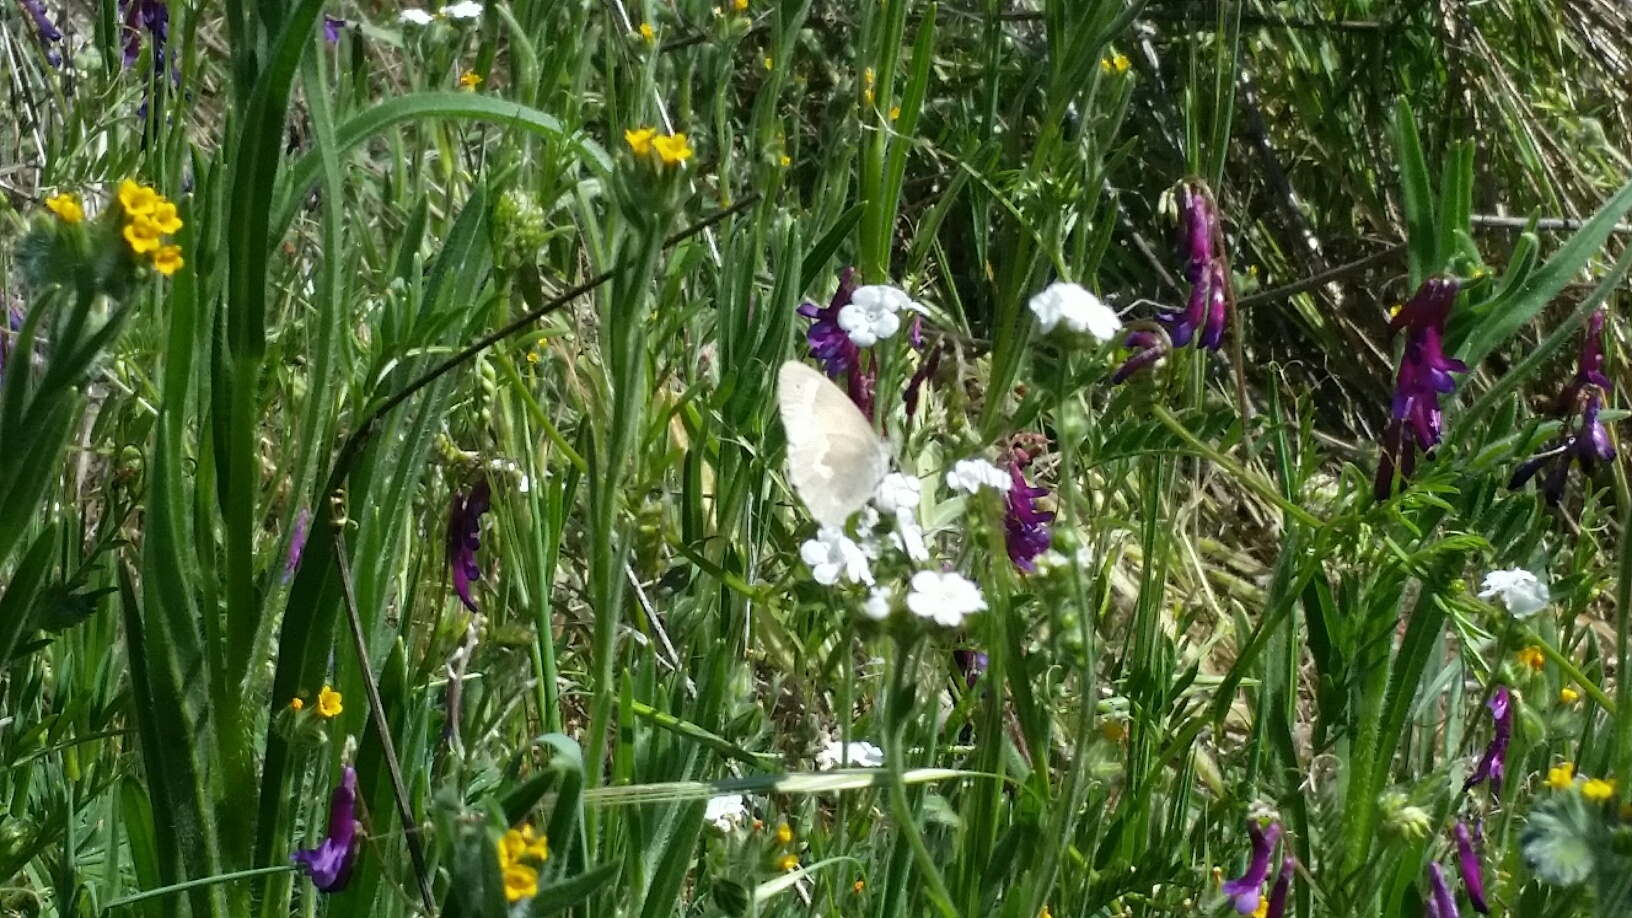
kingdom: Animalia
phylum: Arthropoda
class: Insecta
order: Lepidoptera
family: Nymphalidae
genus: Coenonympha
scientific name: Coenonympha california
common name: Common ringlet
